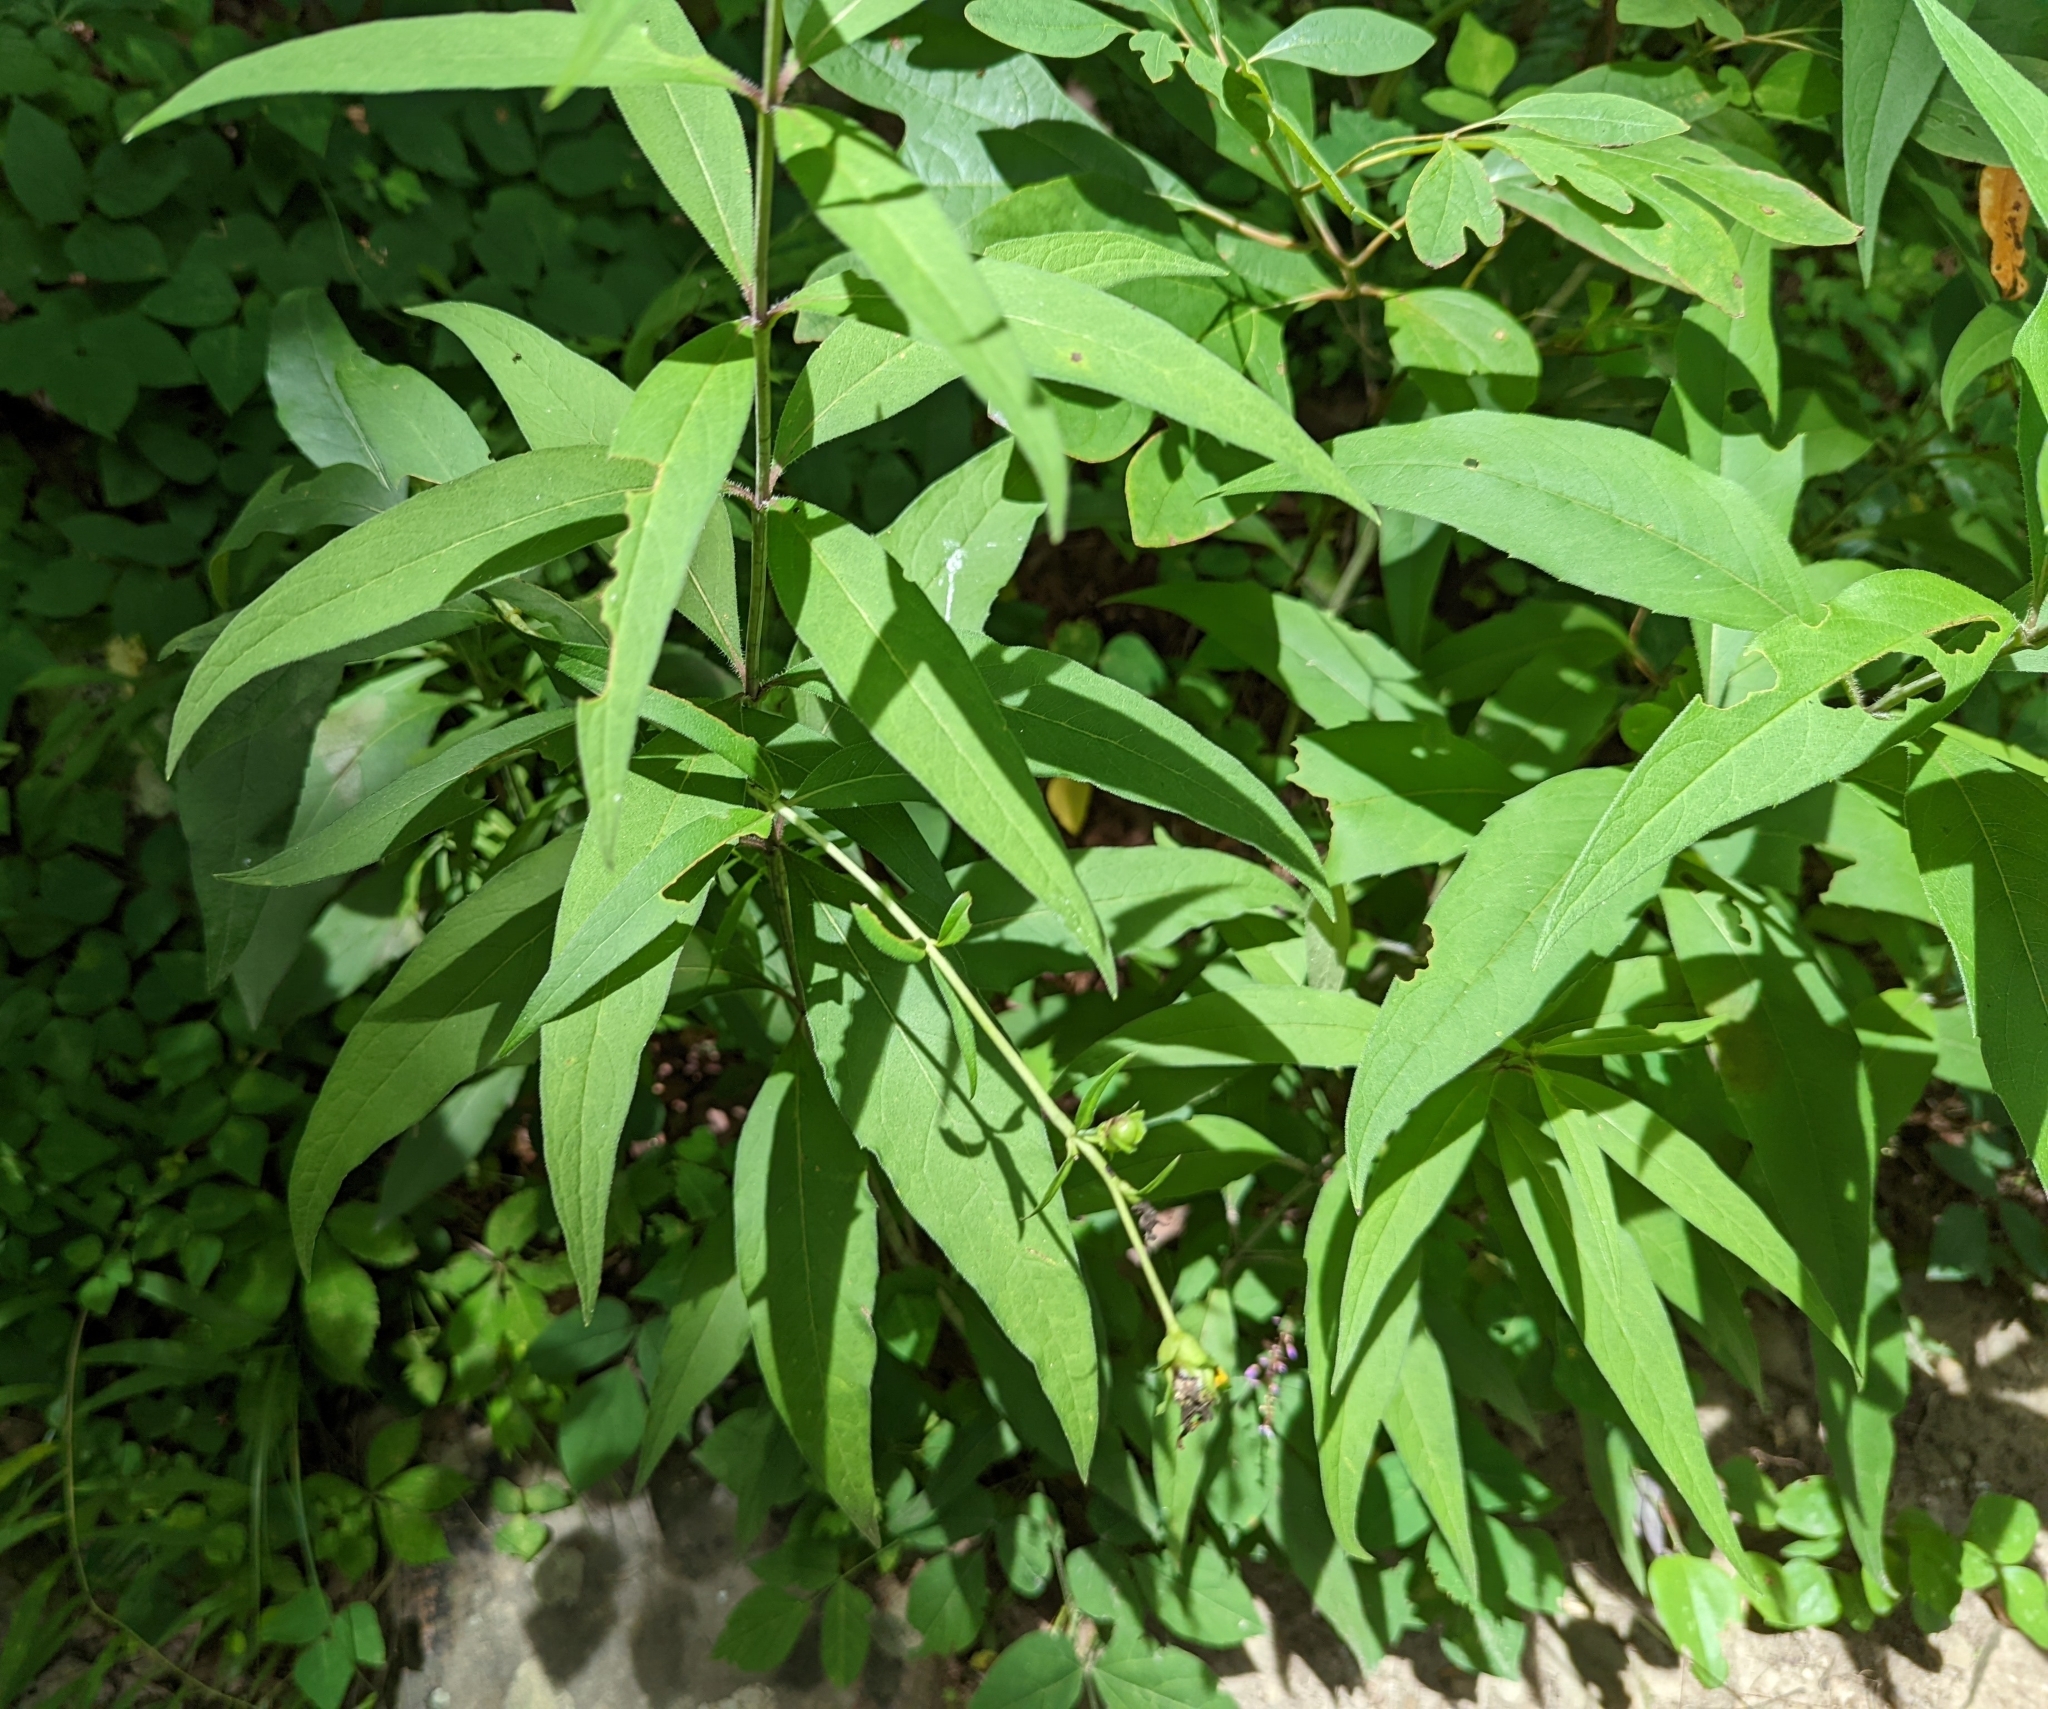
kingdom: Plantae
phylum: Tracheophyta
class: Magnoliopsida
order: Asterales
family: Asteraceae
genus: Silphium
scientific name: Silphium asteriscus
